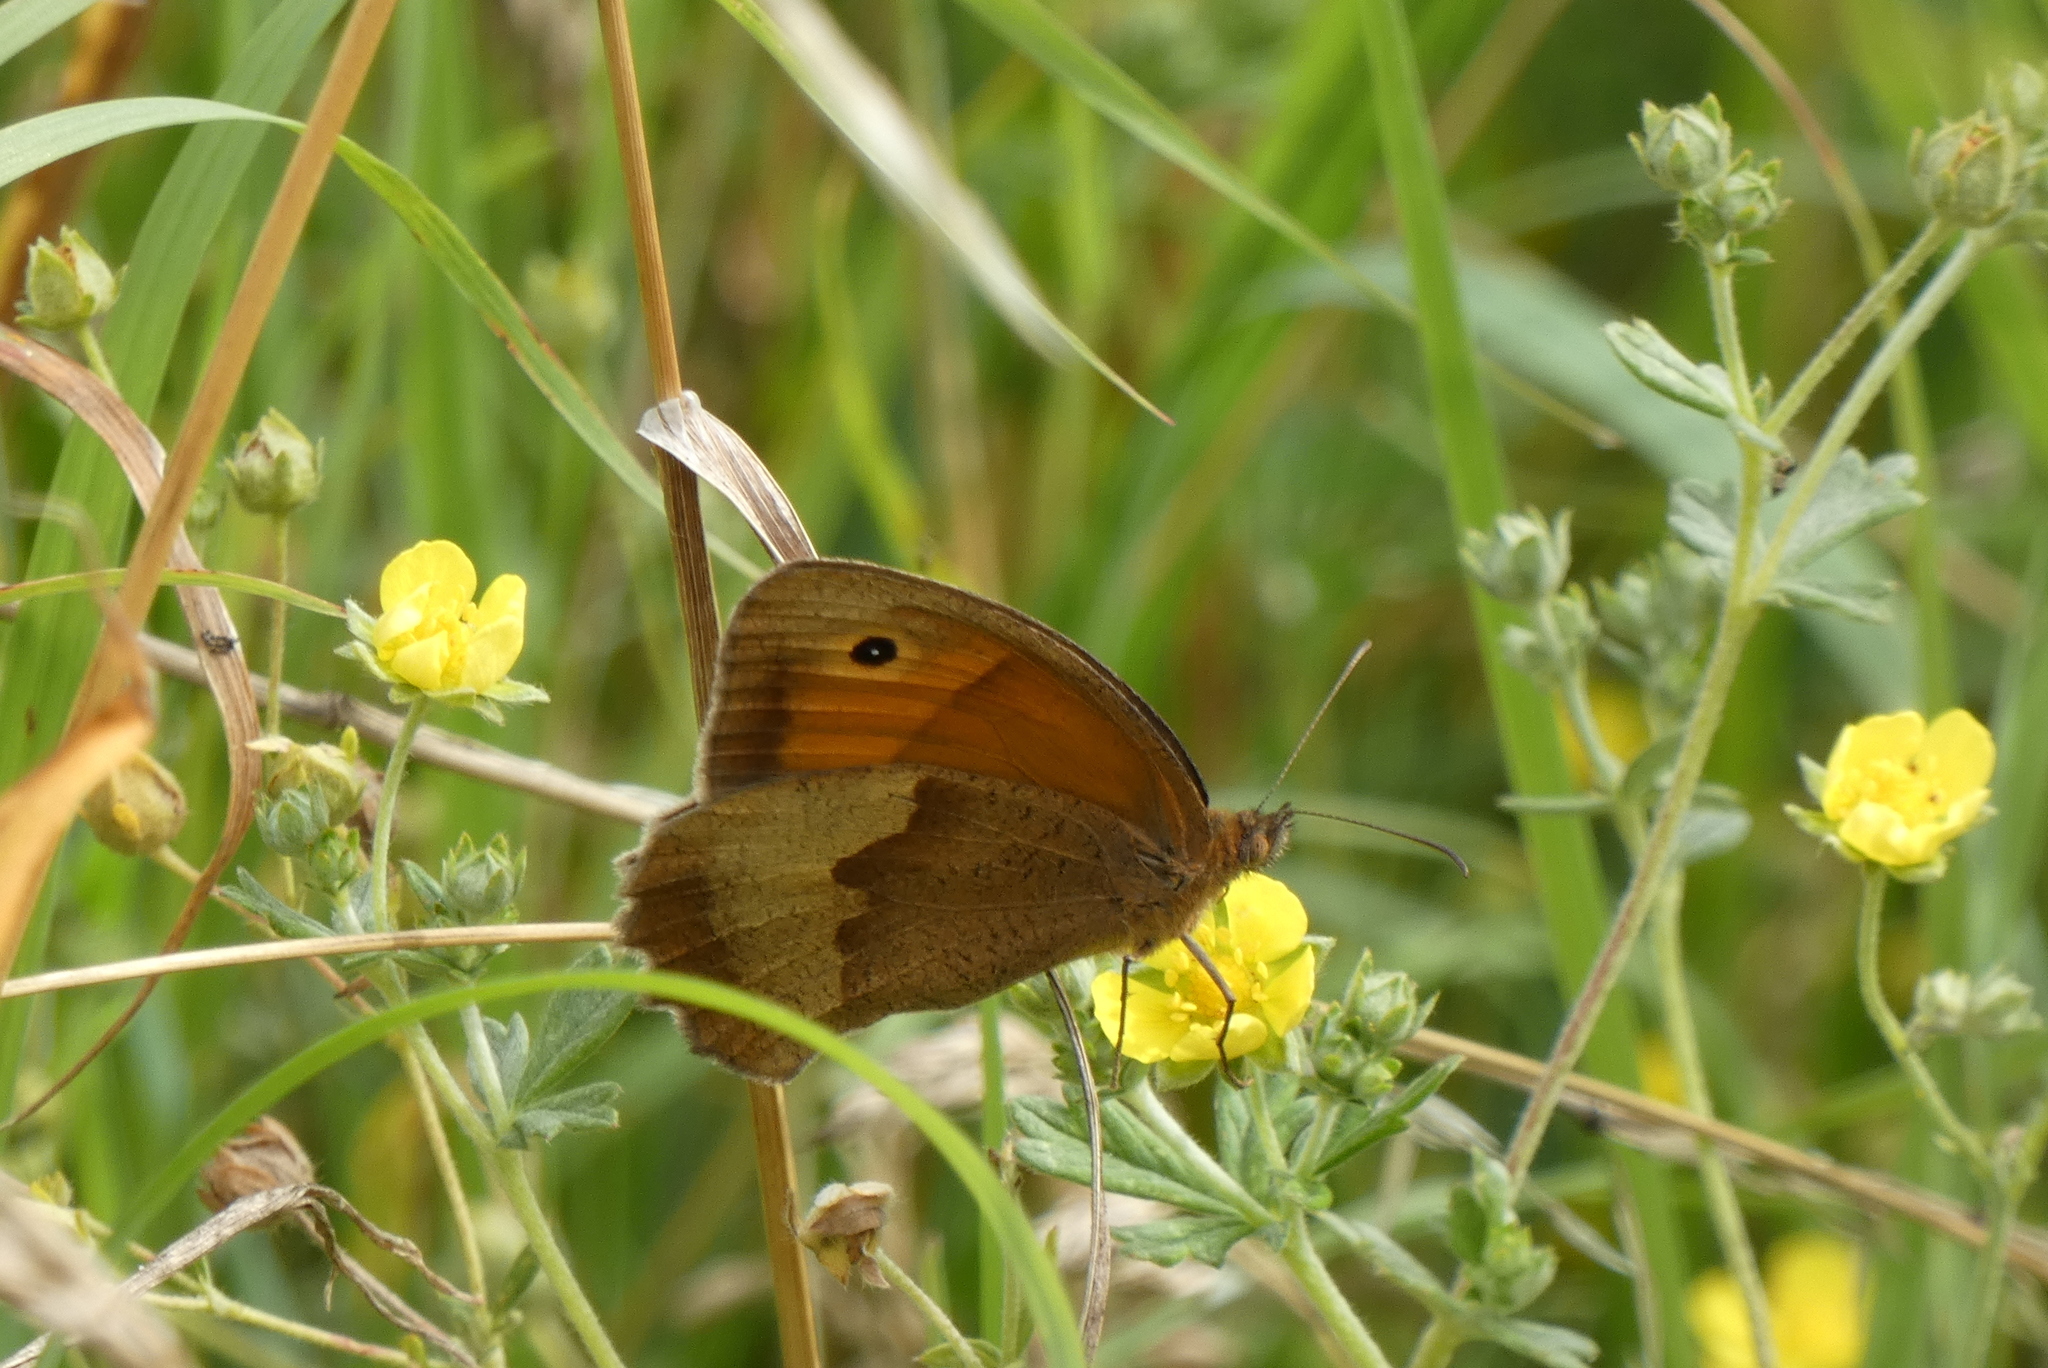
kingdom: Animalia
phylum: Arthropoda
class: Insecta
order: Lepidoptera
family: Nymphalidae
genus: Maniola
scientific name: Maniola jurtina
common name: Meadow brown
